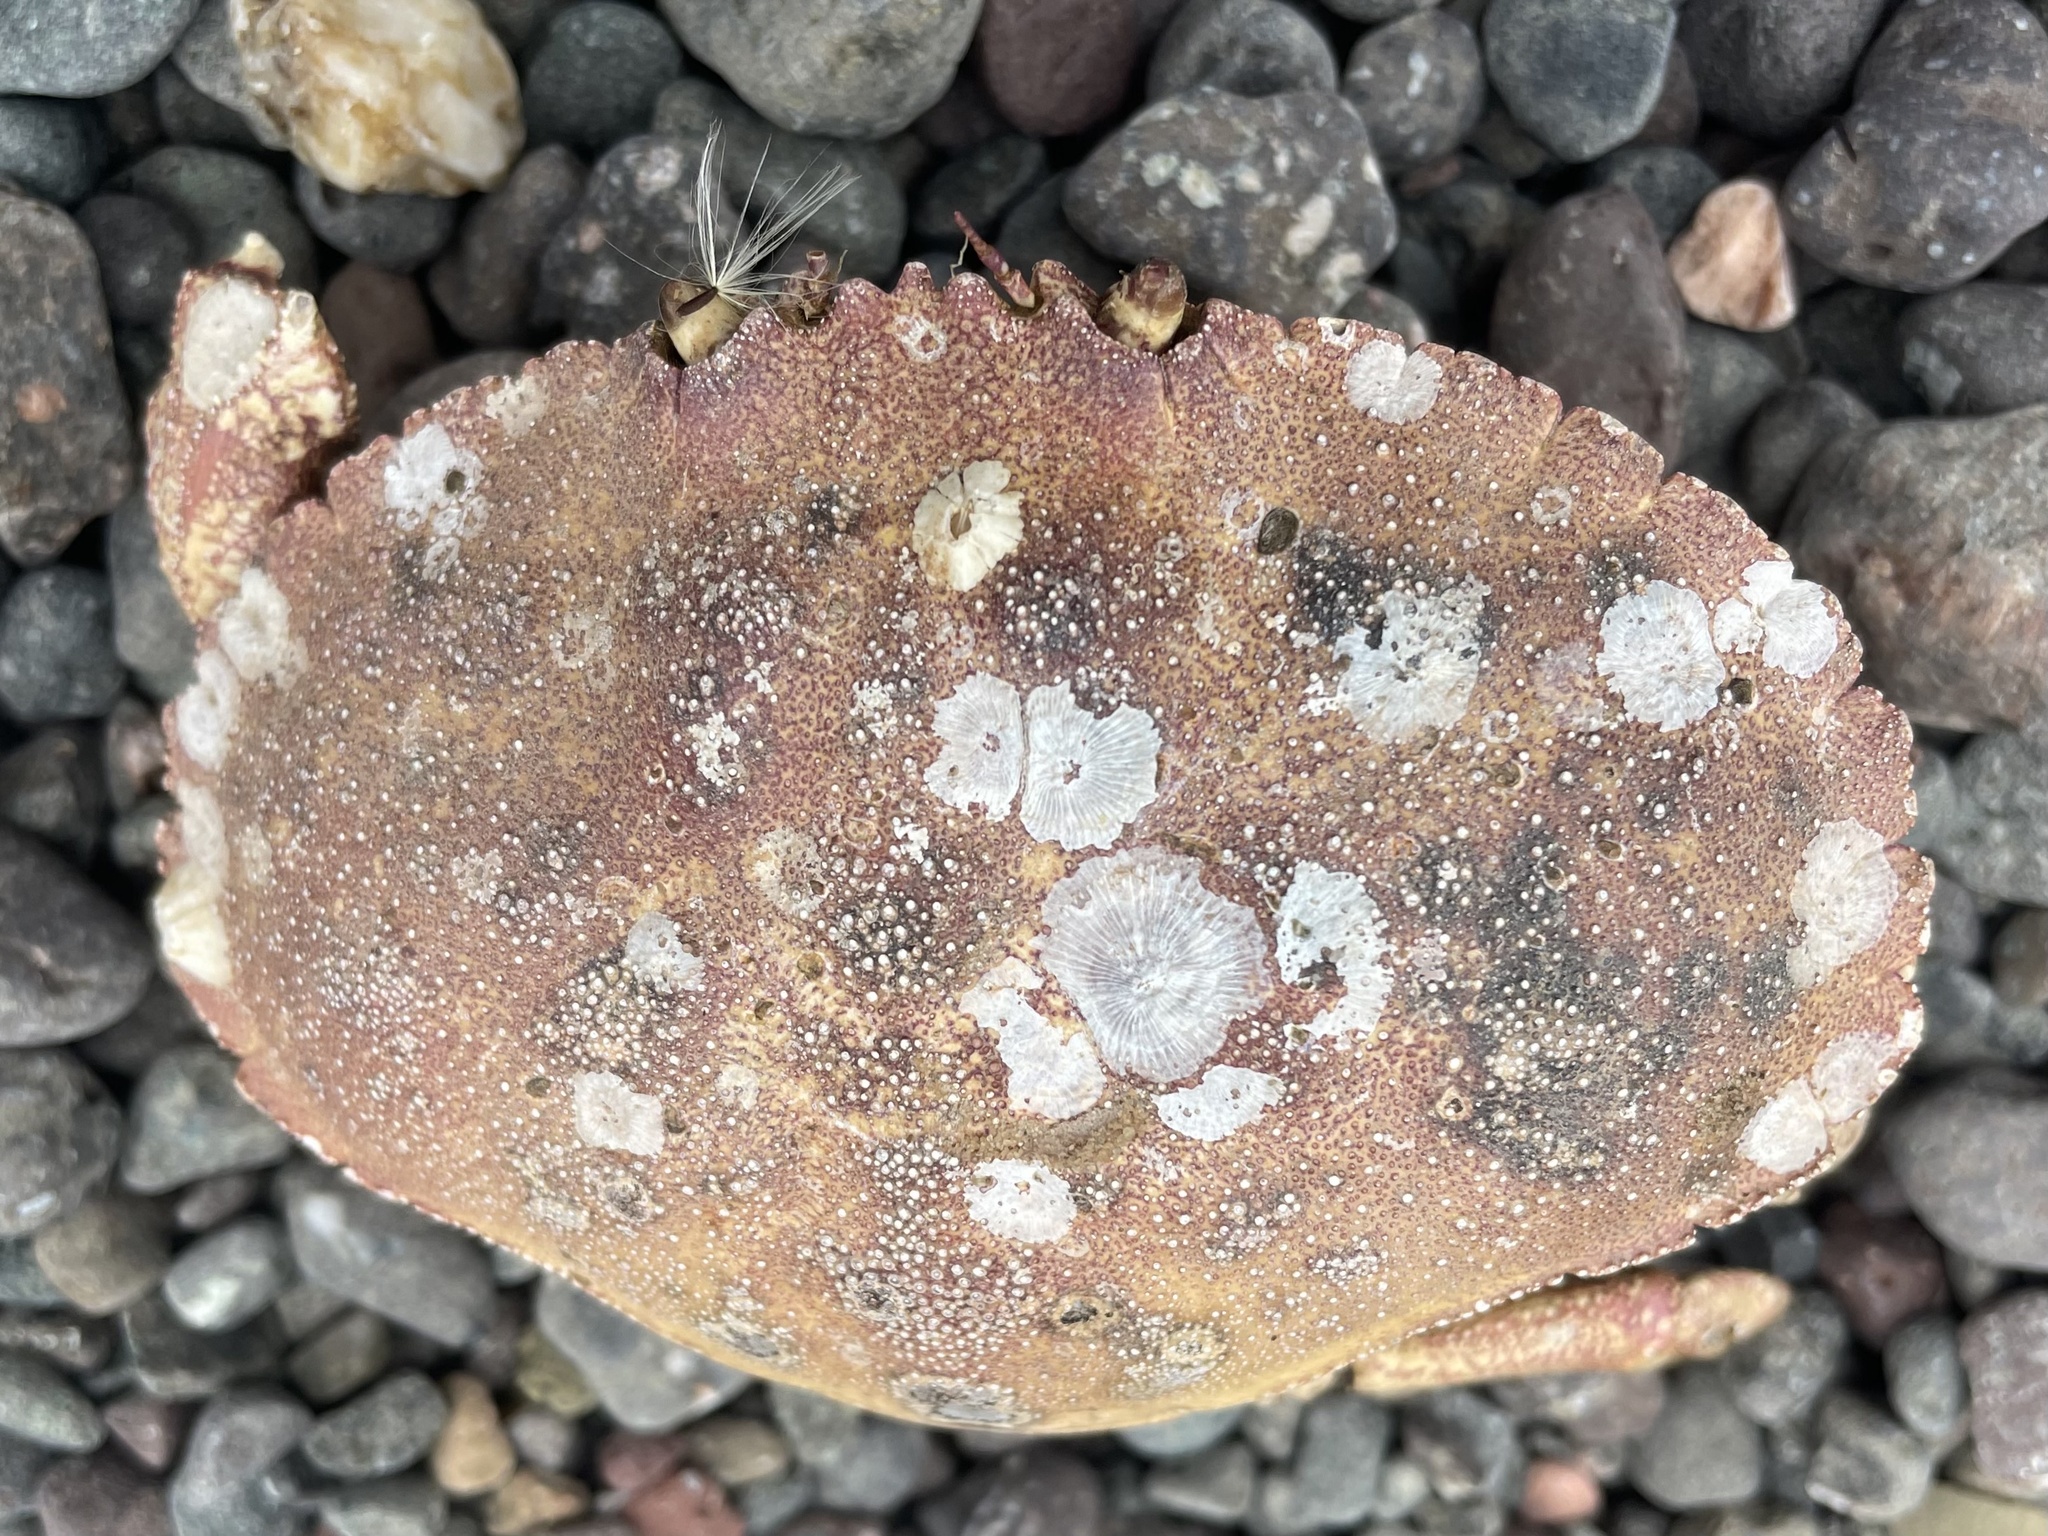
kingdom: Animalia
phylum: Arthropoda
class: Malacostraca
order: Decapoda
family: Cancridae
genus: Cancer
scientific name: Cancer borealis
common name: Jonah crab
